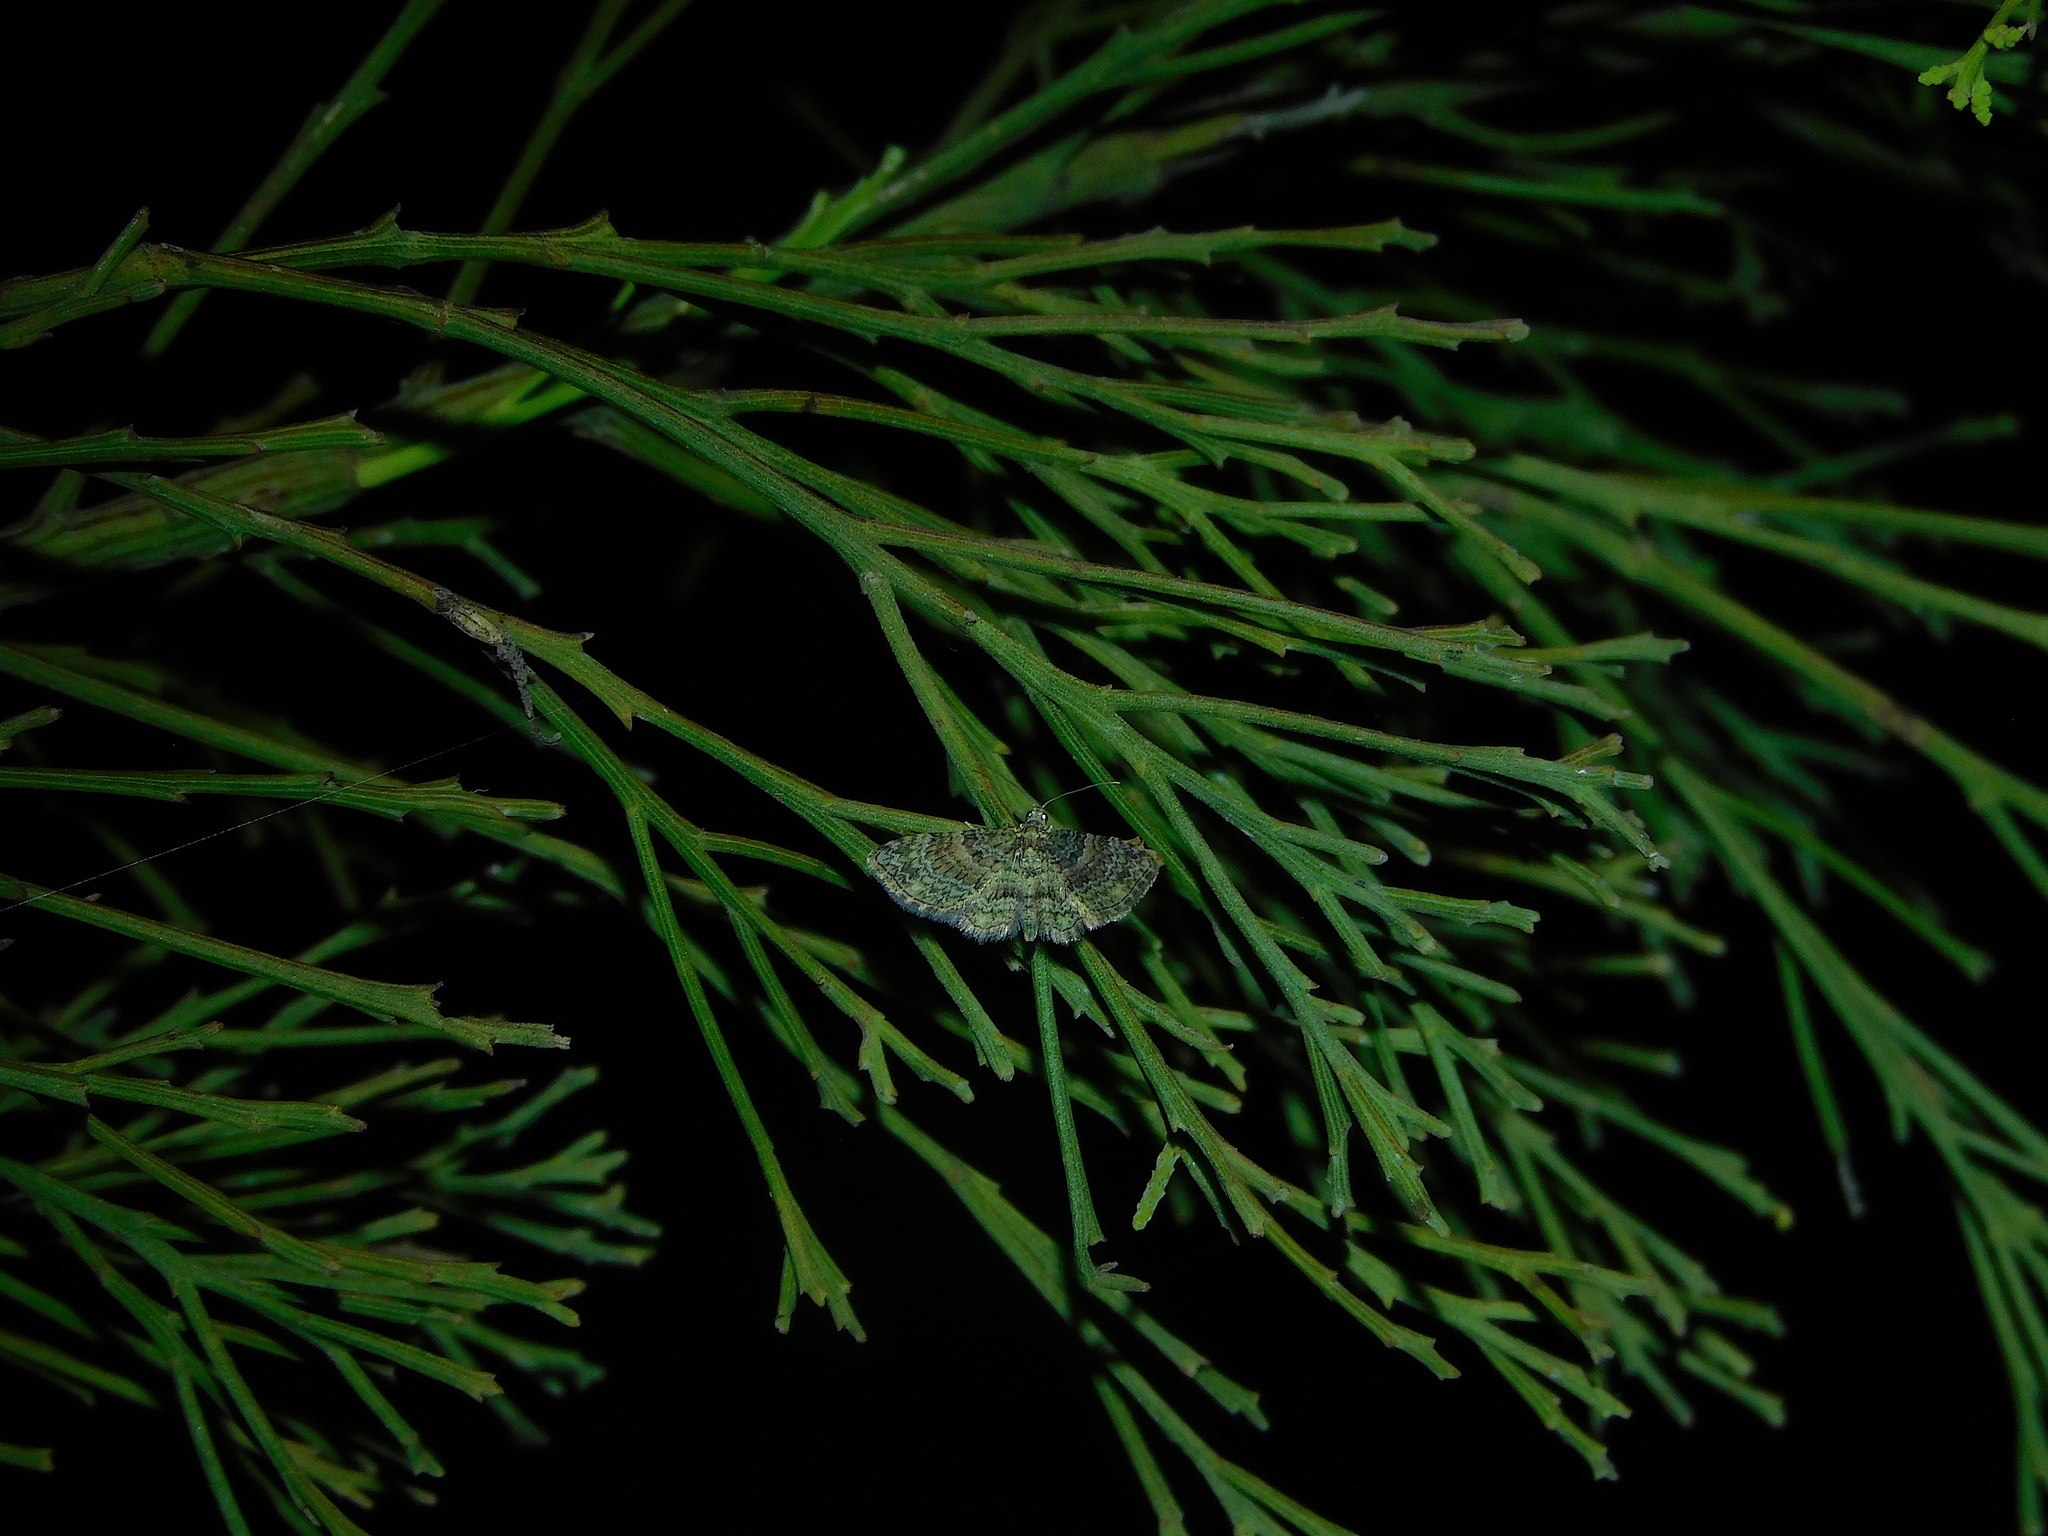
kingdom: Animalia
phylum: Arthropoda
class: Insecta
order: Lepidoptera
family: Geometridae
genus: Chloroclystis
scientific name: Chloroclystis catastreptes
